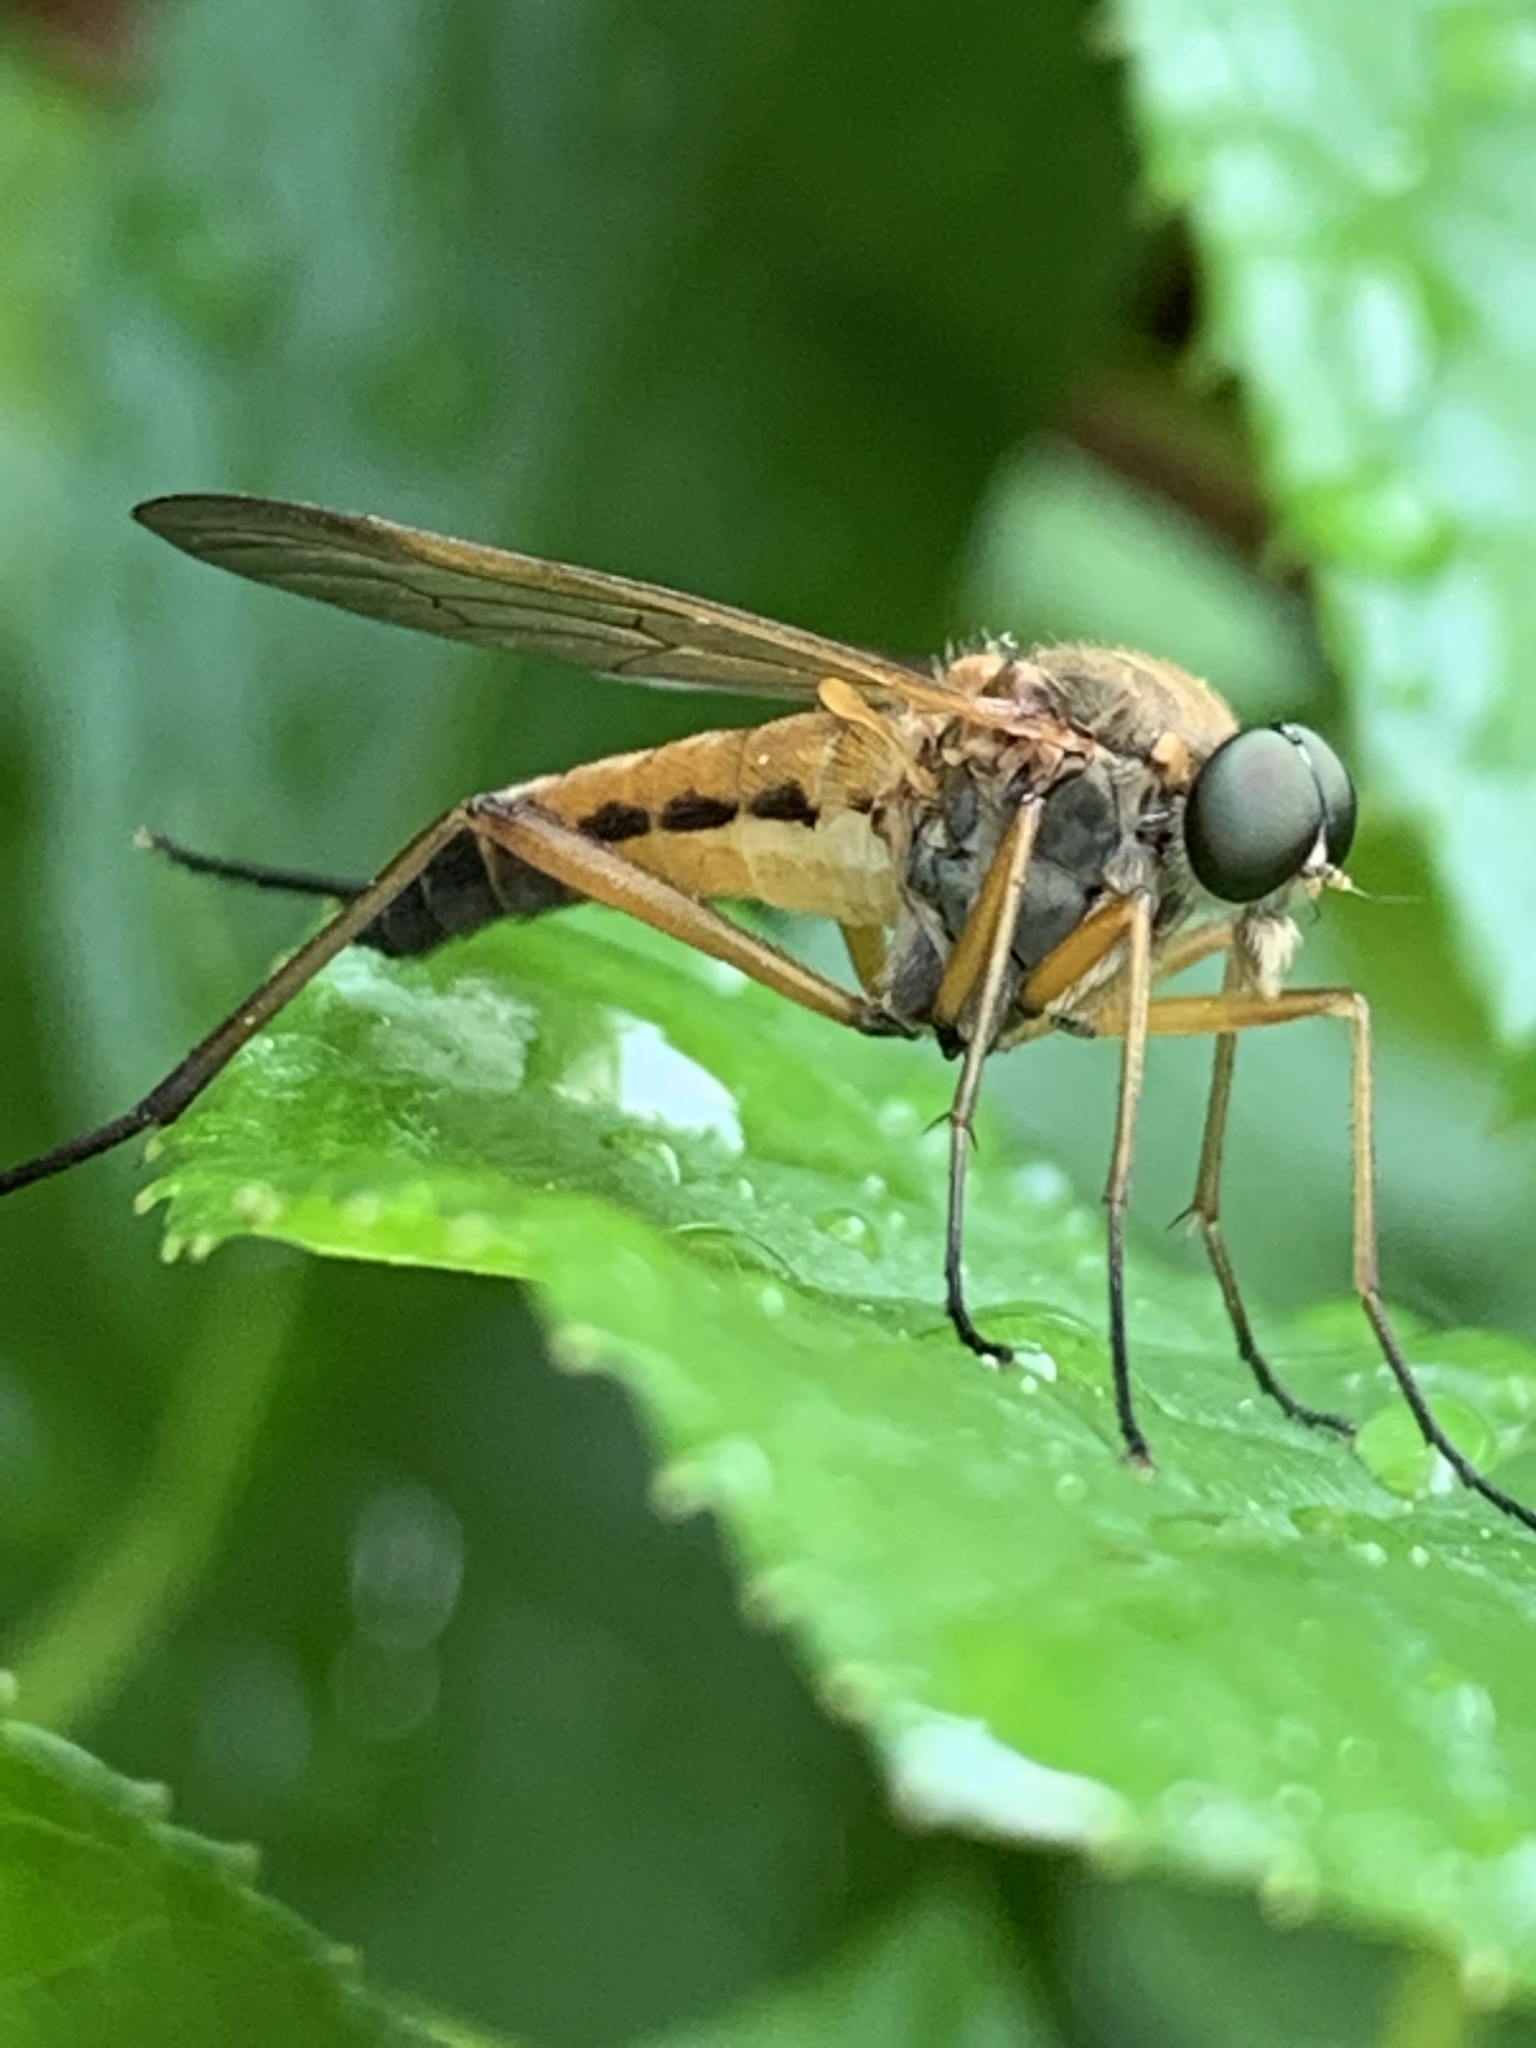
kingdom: Animalia
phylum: Arthropoda
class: Insecta
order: Diptera
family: Rhagionidae
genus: Rhagio
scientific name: Rhagio tringaria
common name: Marsh snipefly
